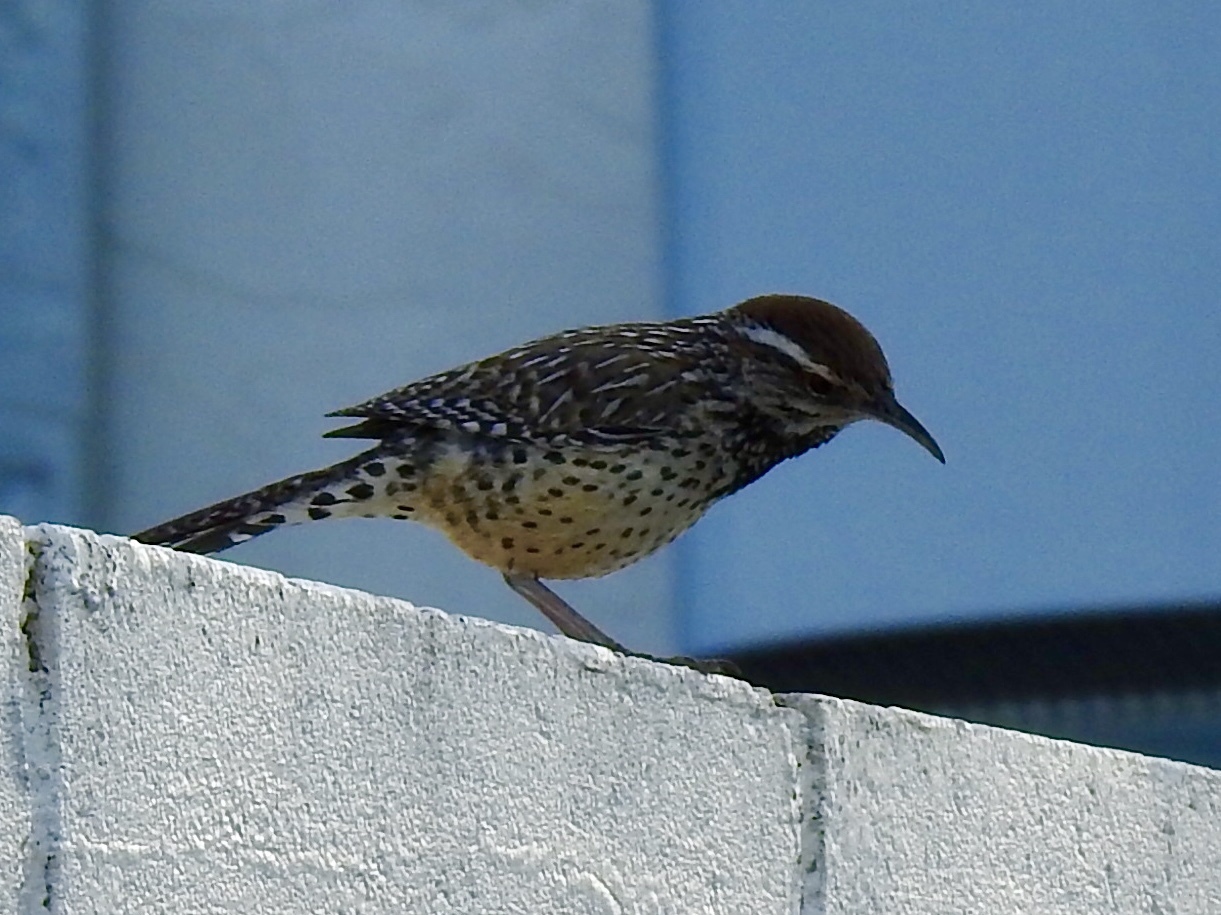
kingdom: Animalia
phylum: Chordata
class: Aves
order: Passeriformes
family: Troglodytidae
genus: Campylorhynchus
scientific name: Campylorhynchus brunneicapillus
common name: Cactus wren
